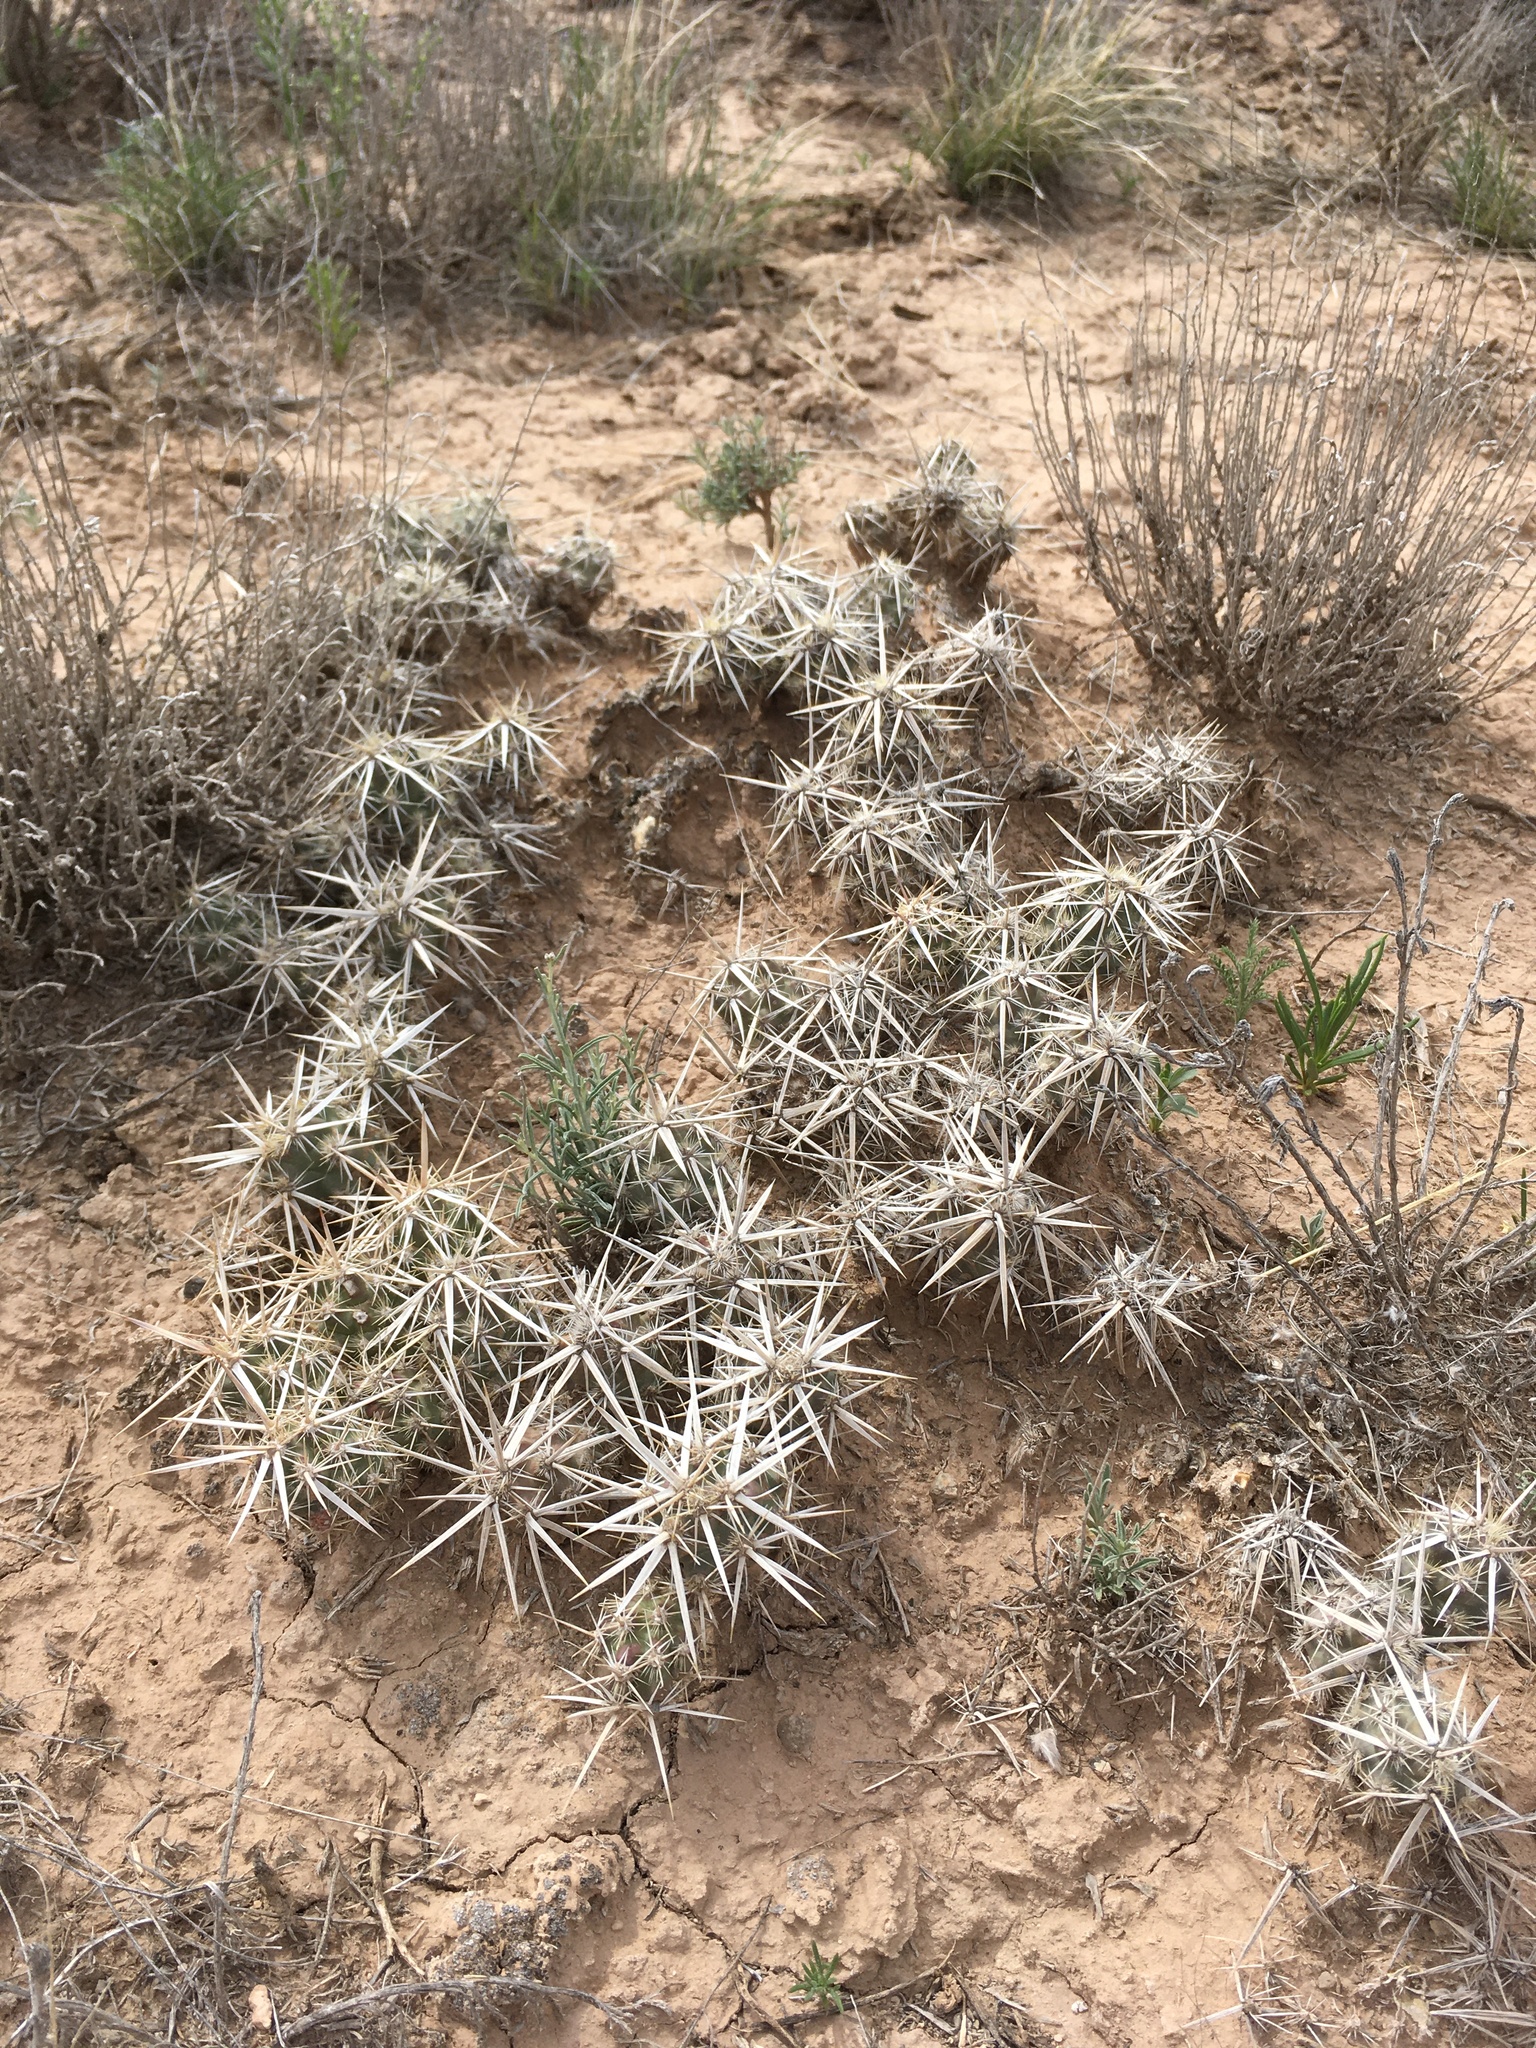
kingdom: Plantae
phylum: Tracheophyta
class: Magnoliopsida
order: Caryophyllales
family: Cactaceae
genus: Grusonia
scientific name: Grusonia clavata
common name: Club cholla
